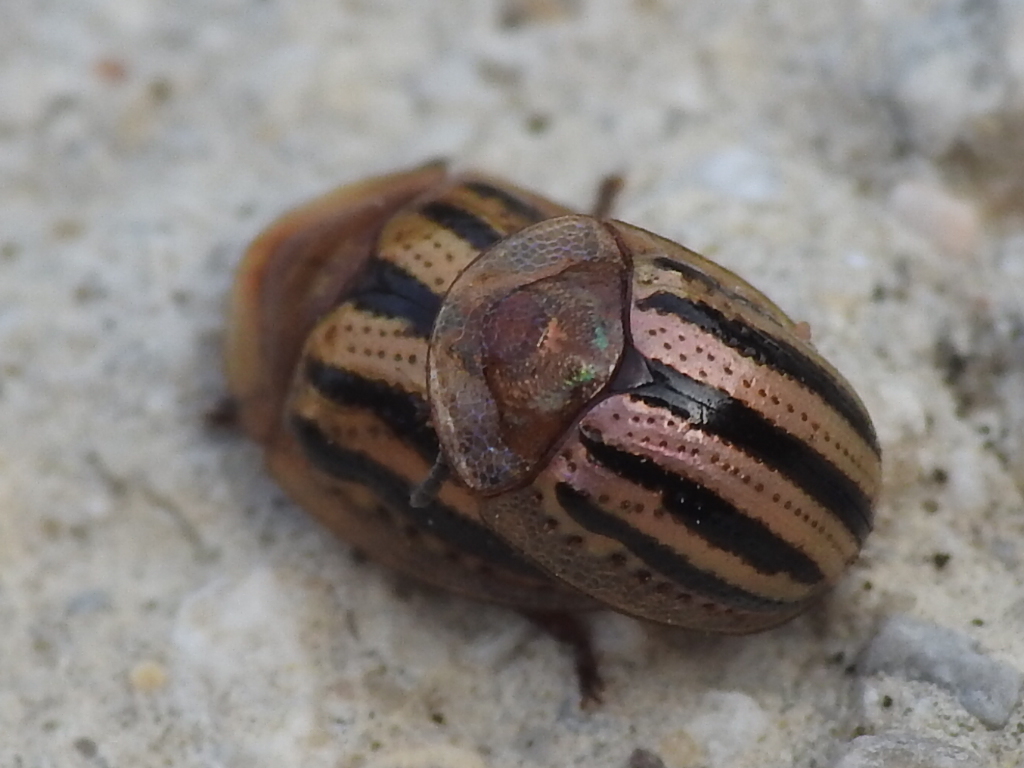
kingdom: Animalia
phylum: Arthropoda
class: Insecta
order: Coleoptera
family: Chrysomelidae
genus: Agroiconota
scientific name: Agroiconota bivittata
